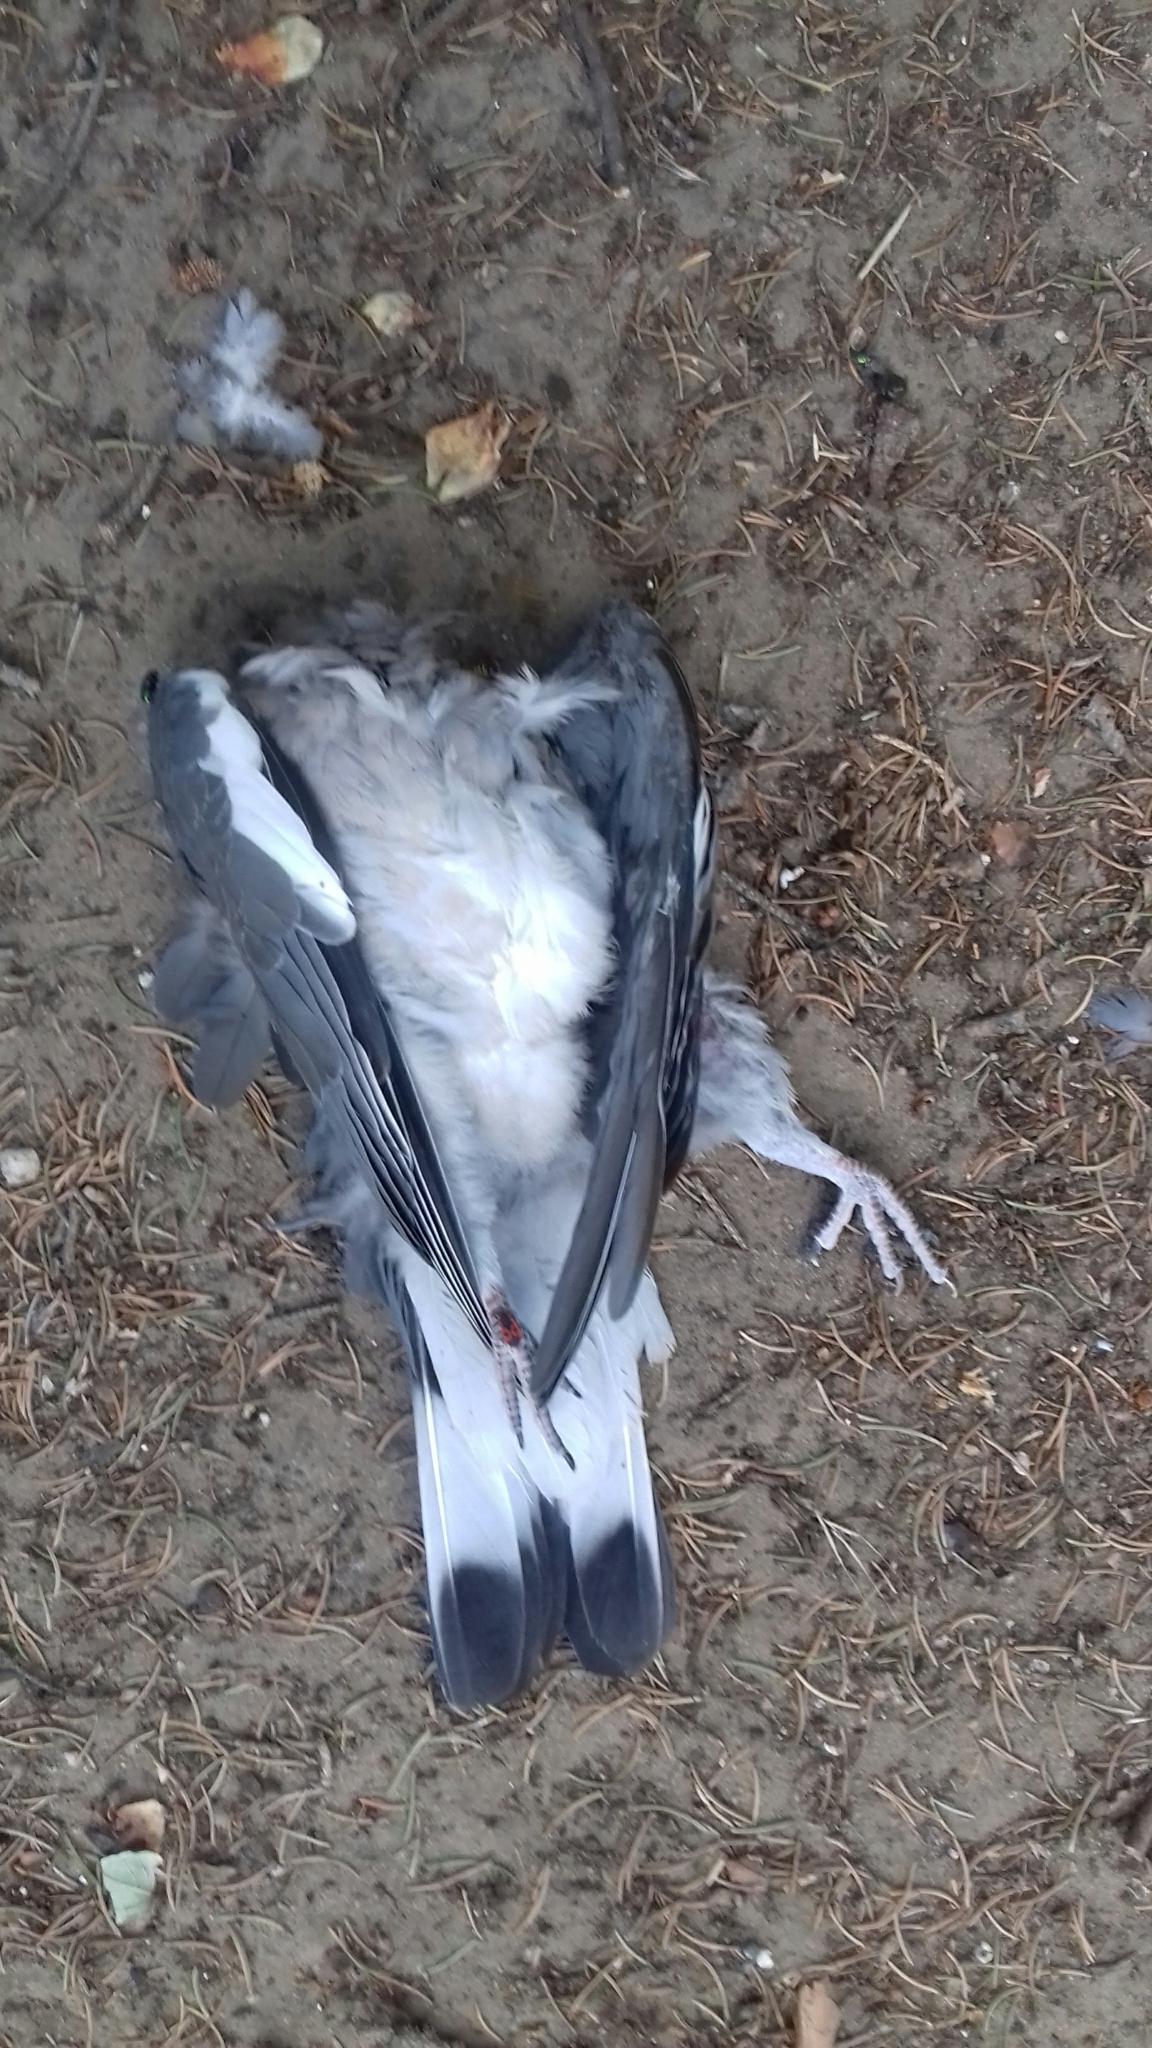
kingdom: Animalia
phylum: Chordata
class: Aves
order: Columbiformes
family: Columbidae
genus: Columba
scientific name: Columba palumbus
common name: Common wood pigeon
